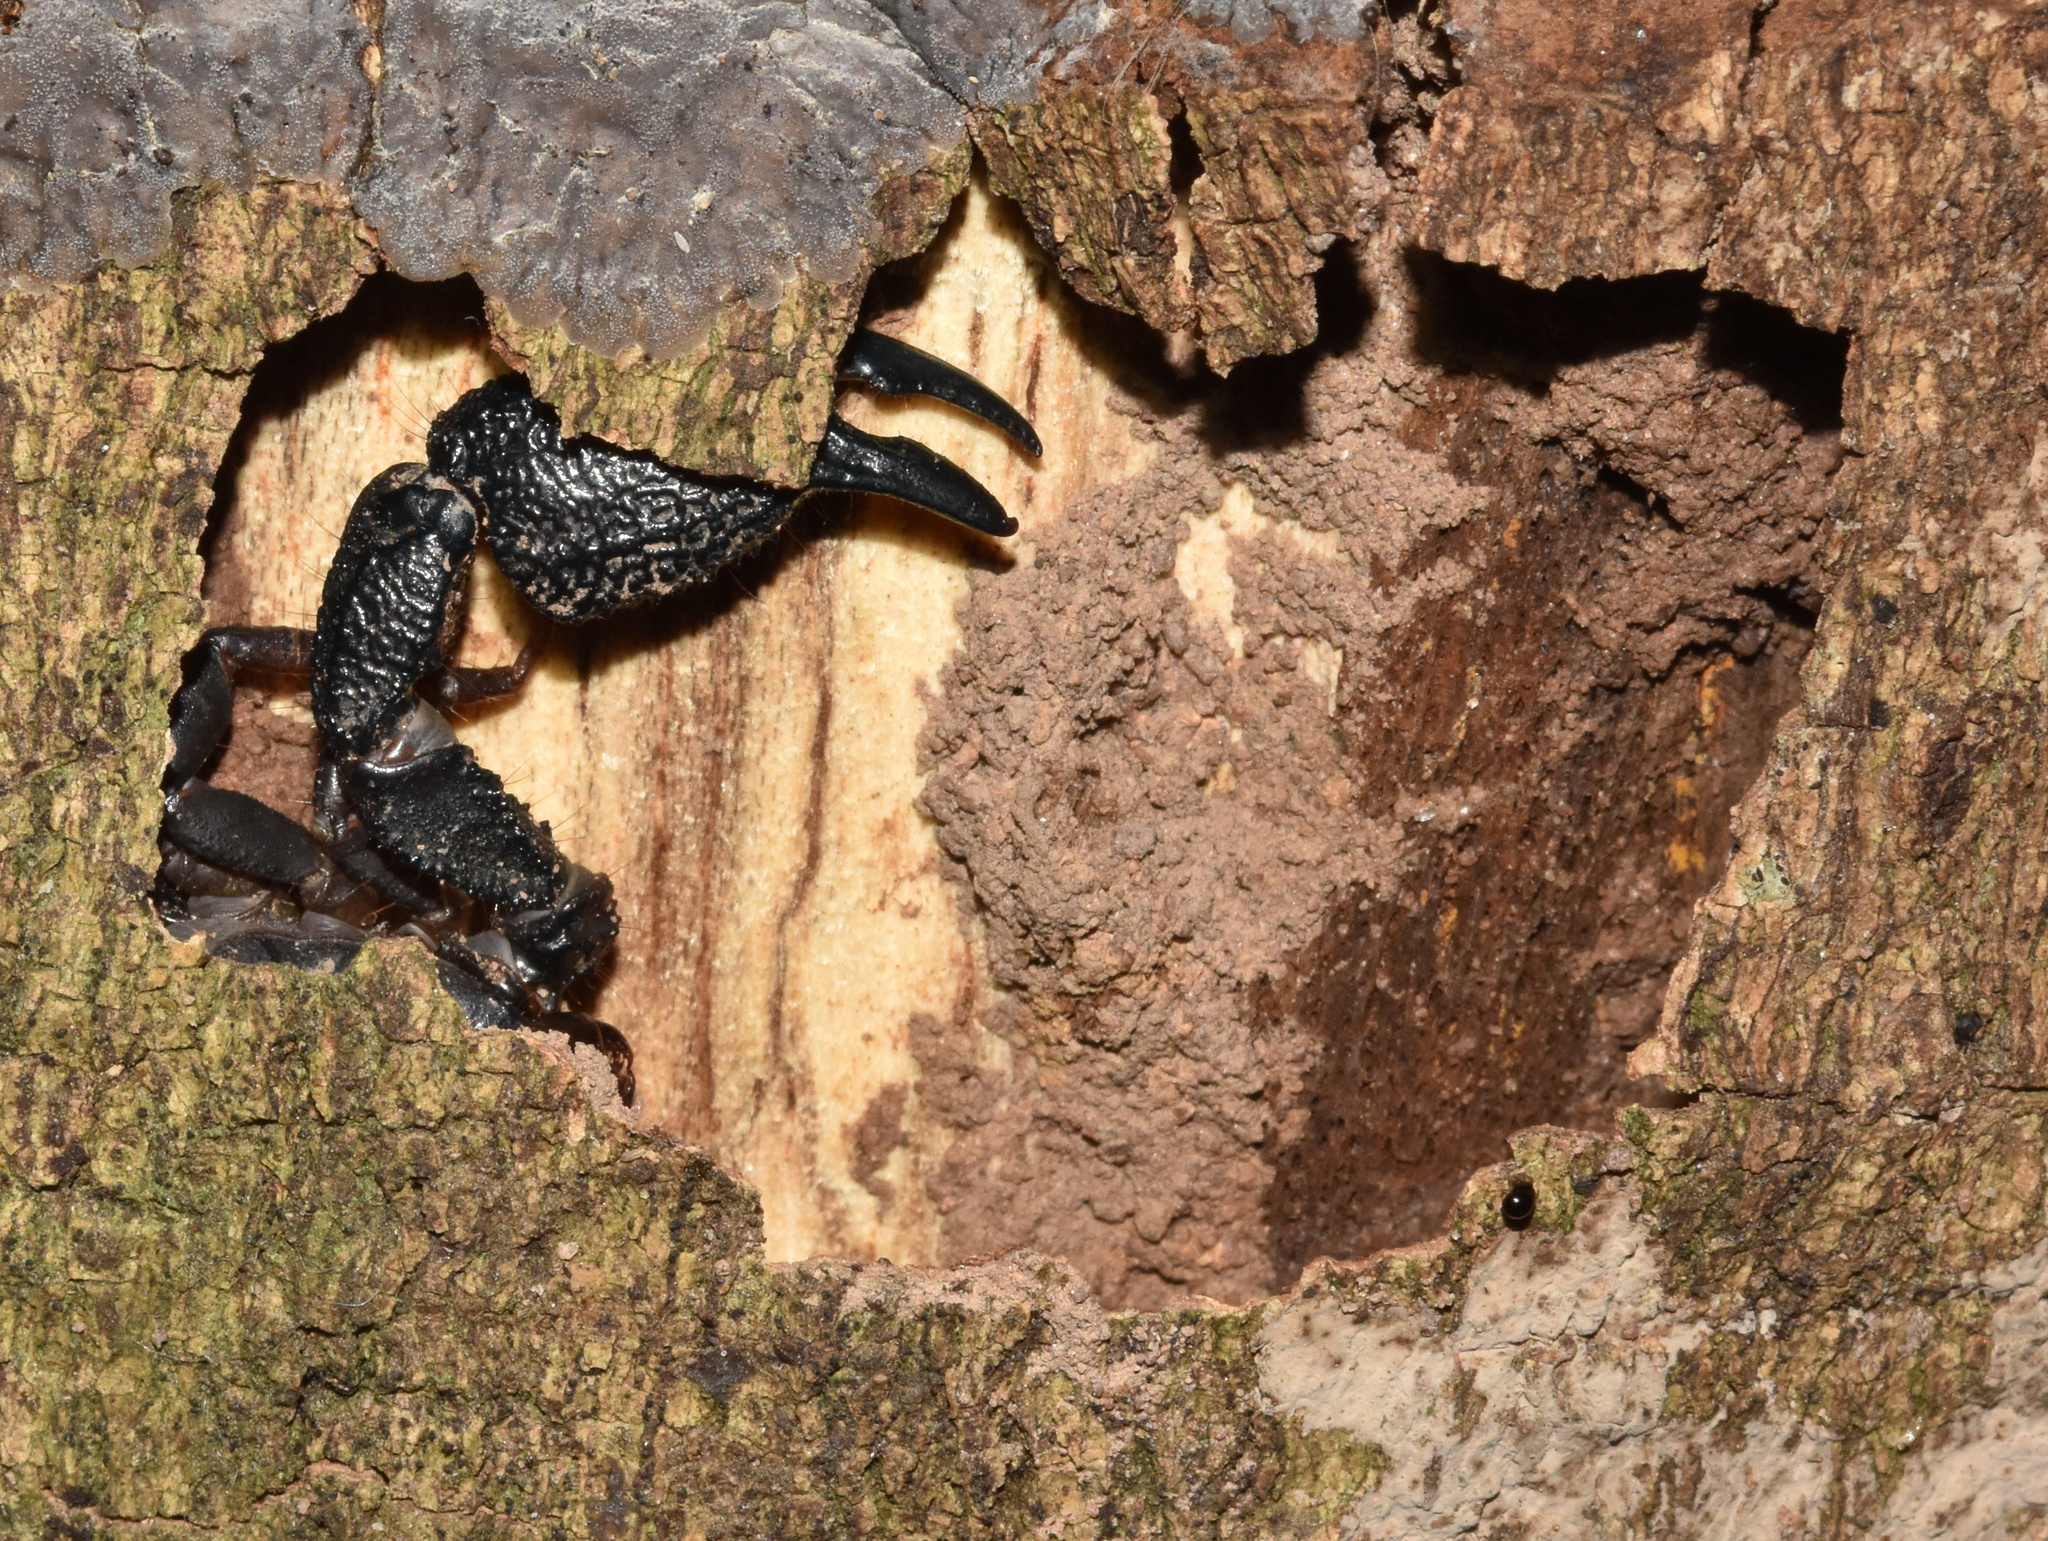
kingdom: Animalia
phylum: Arthropoda
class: Arachnida
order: Scorpiones
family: Hormuridae
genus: Opisthacanthus
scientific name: Opisthacanthus validus
